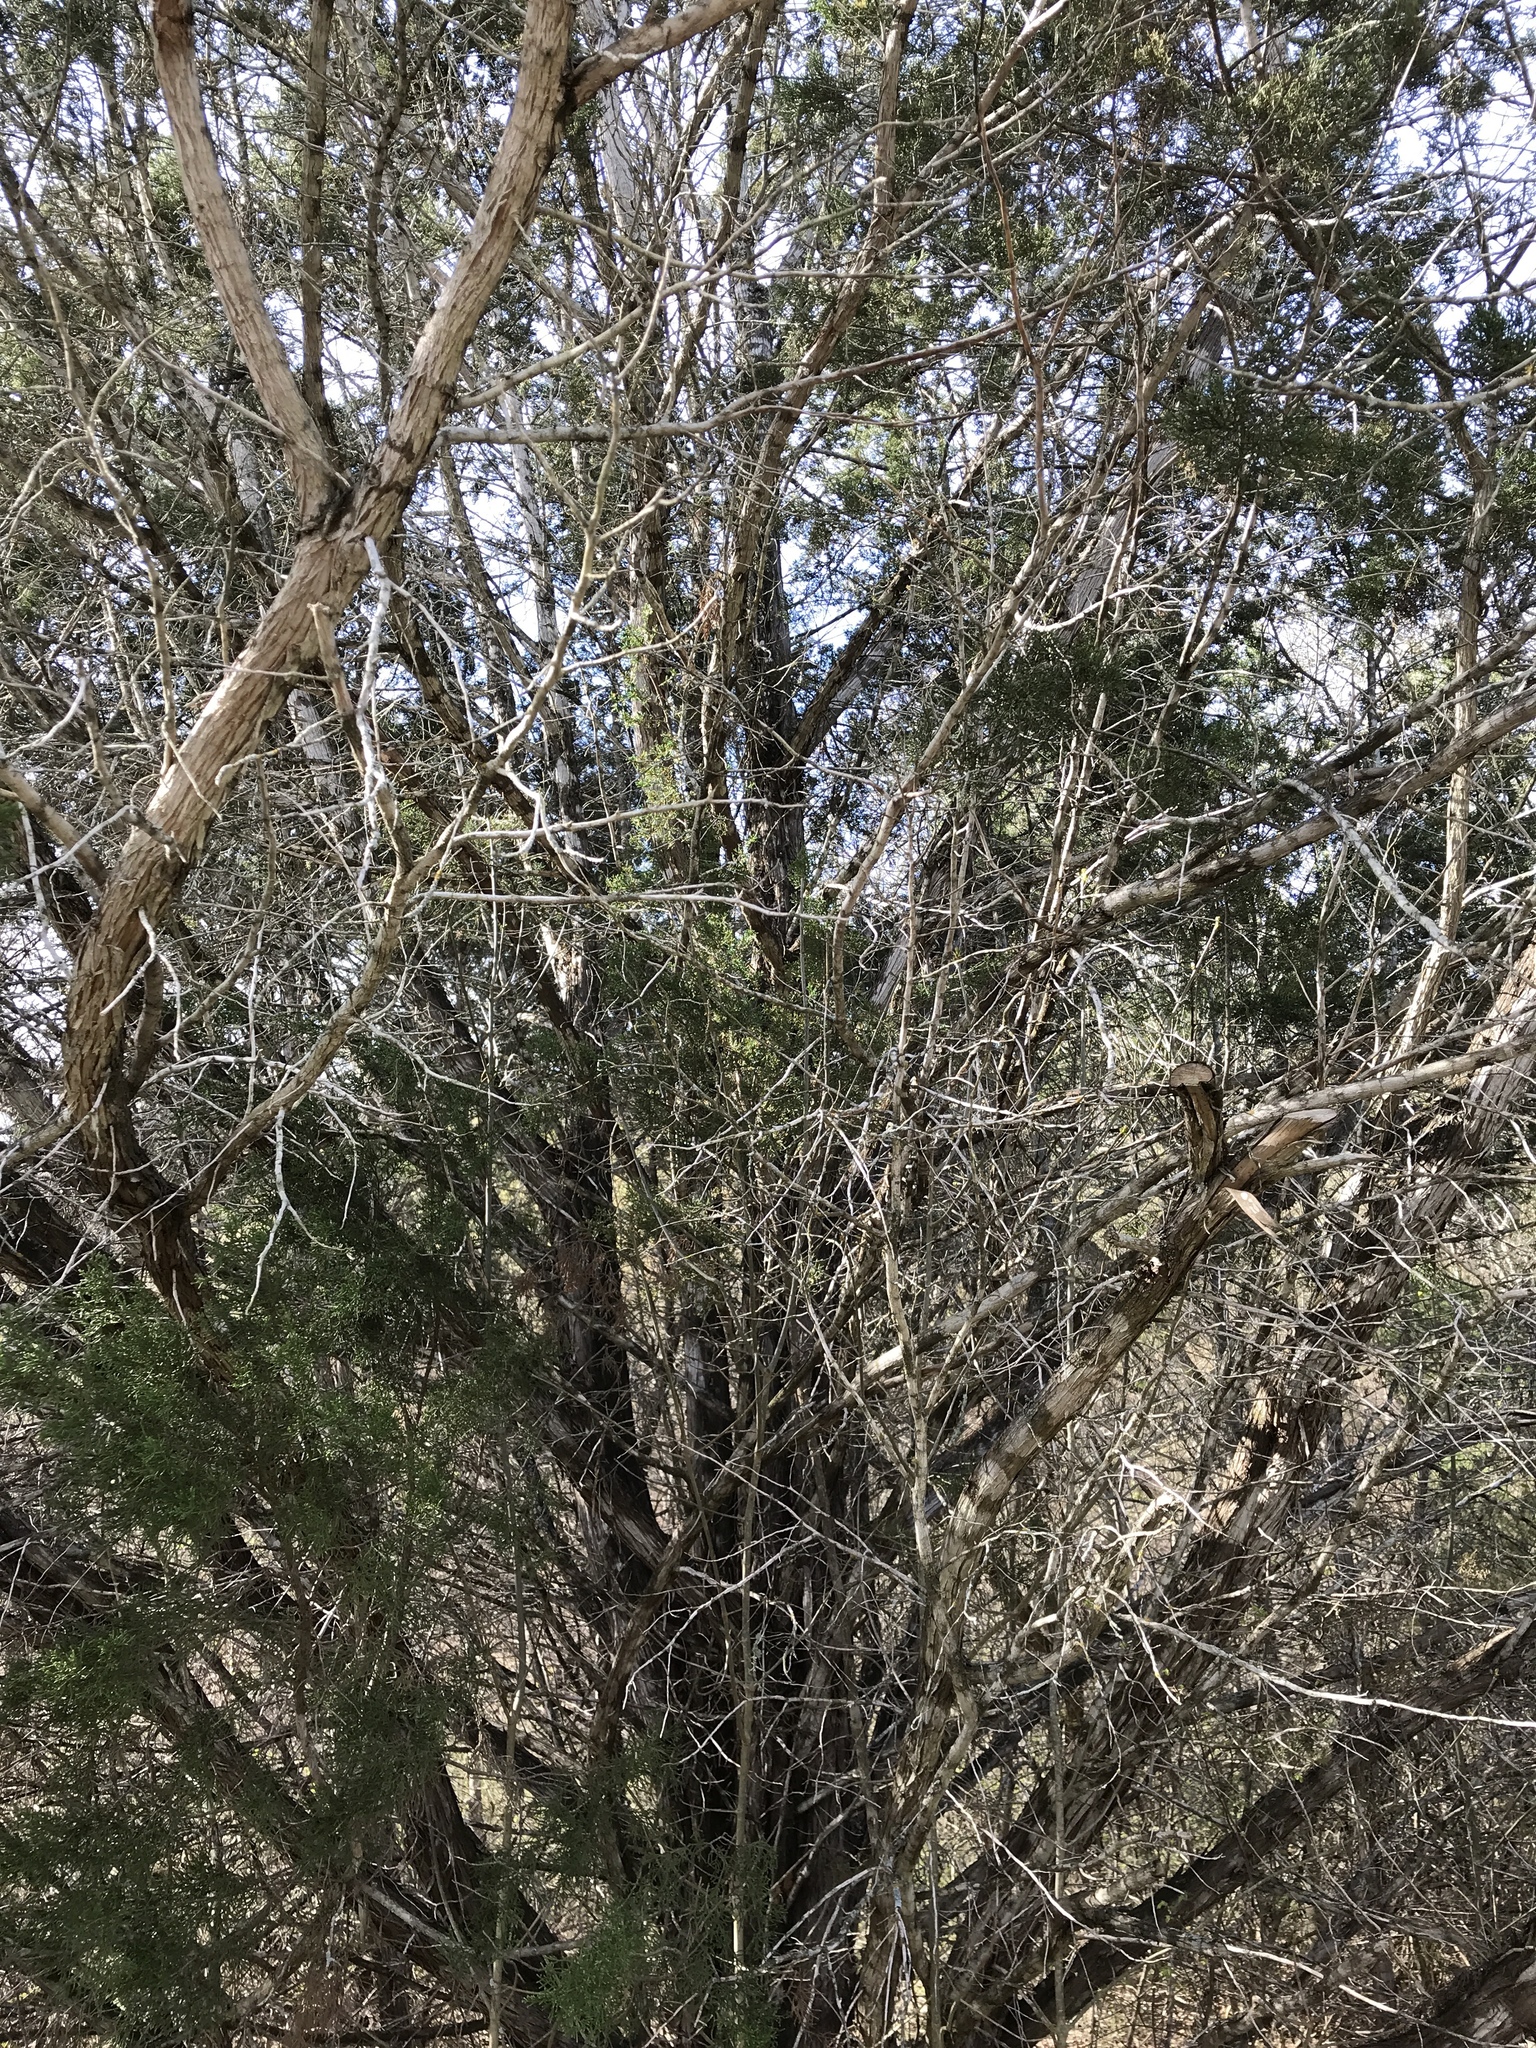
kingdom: Fungi
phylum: Ascomycota
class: Lecanoromycetes
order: Ostropales
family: Stictidaceae
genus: Robergea
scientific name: Robergea
